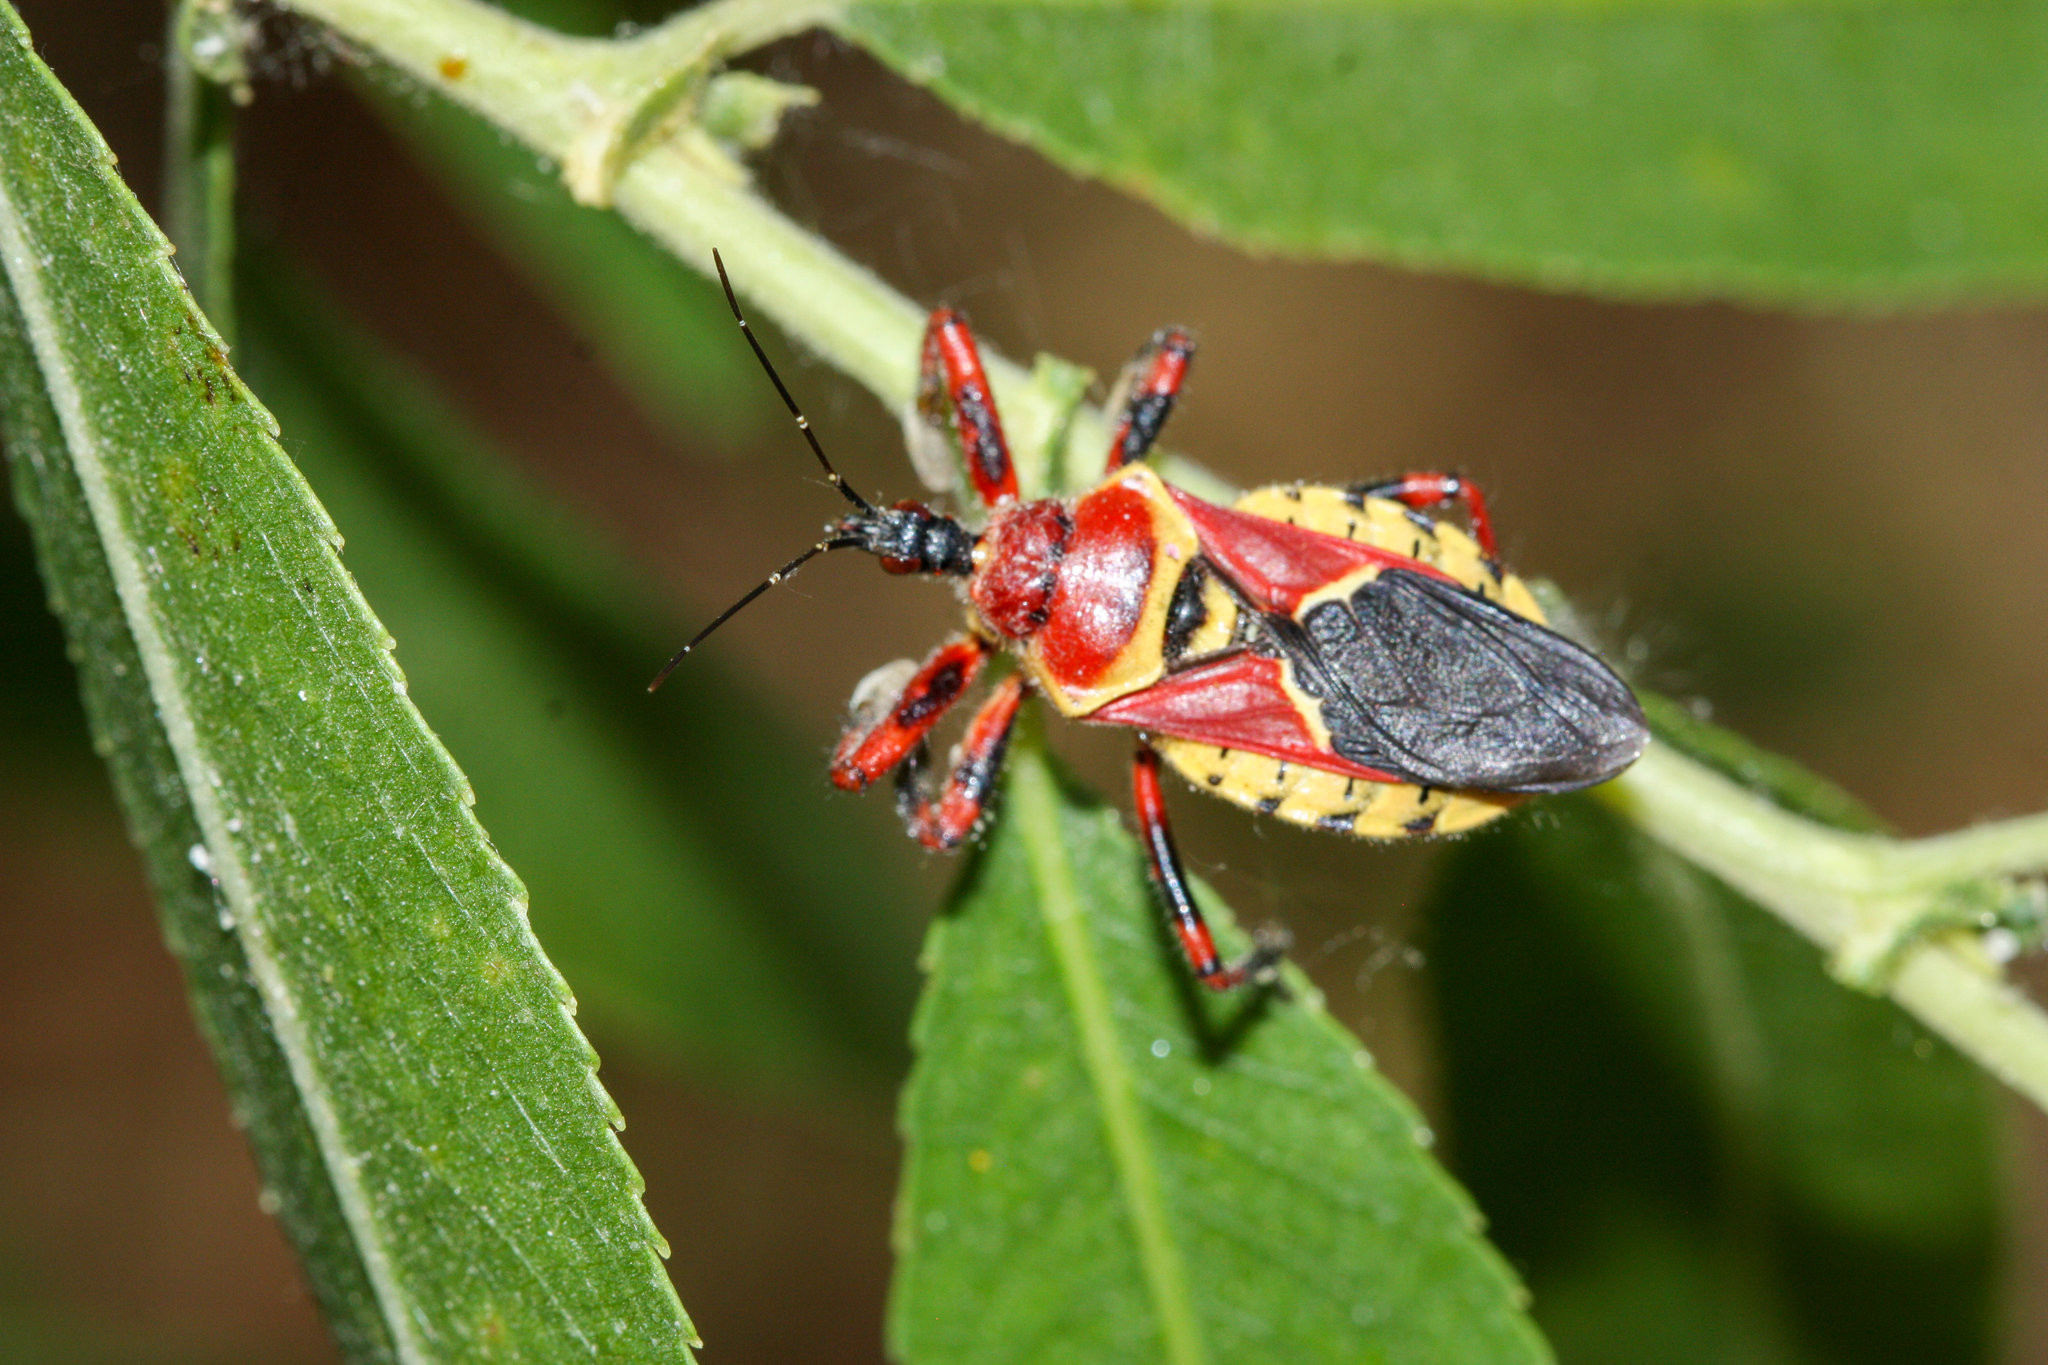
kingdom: Animalia
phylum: Arthropoda
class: Insecta
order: Hemiptera
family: Reduviidae
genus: Apiomerus
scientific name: Apiomerus flaviventris
